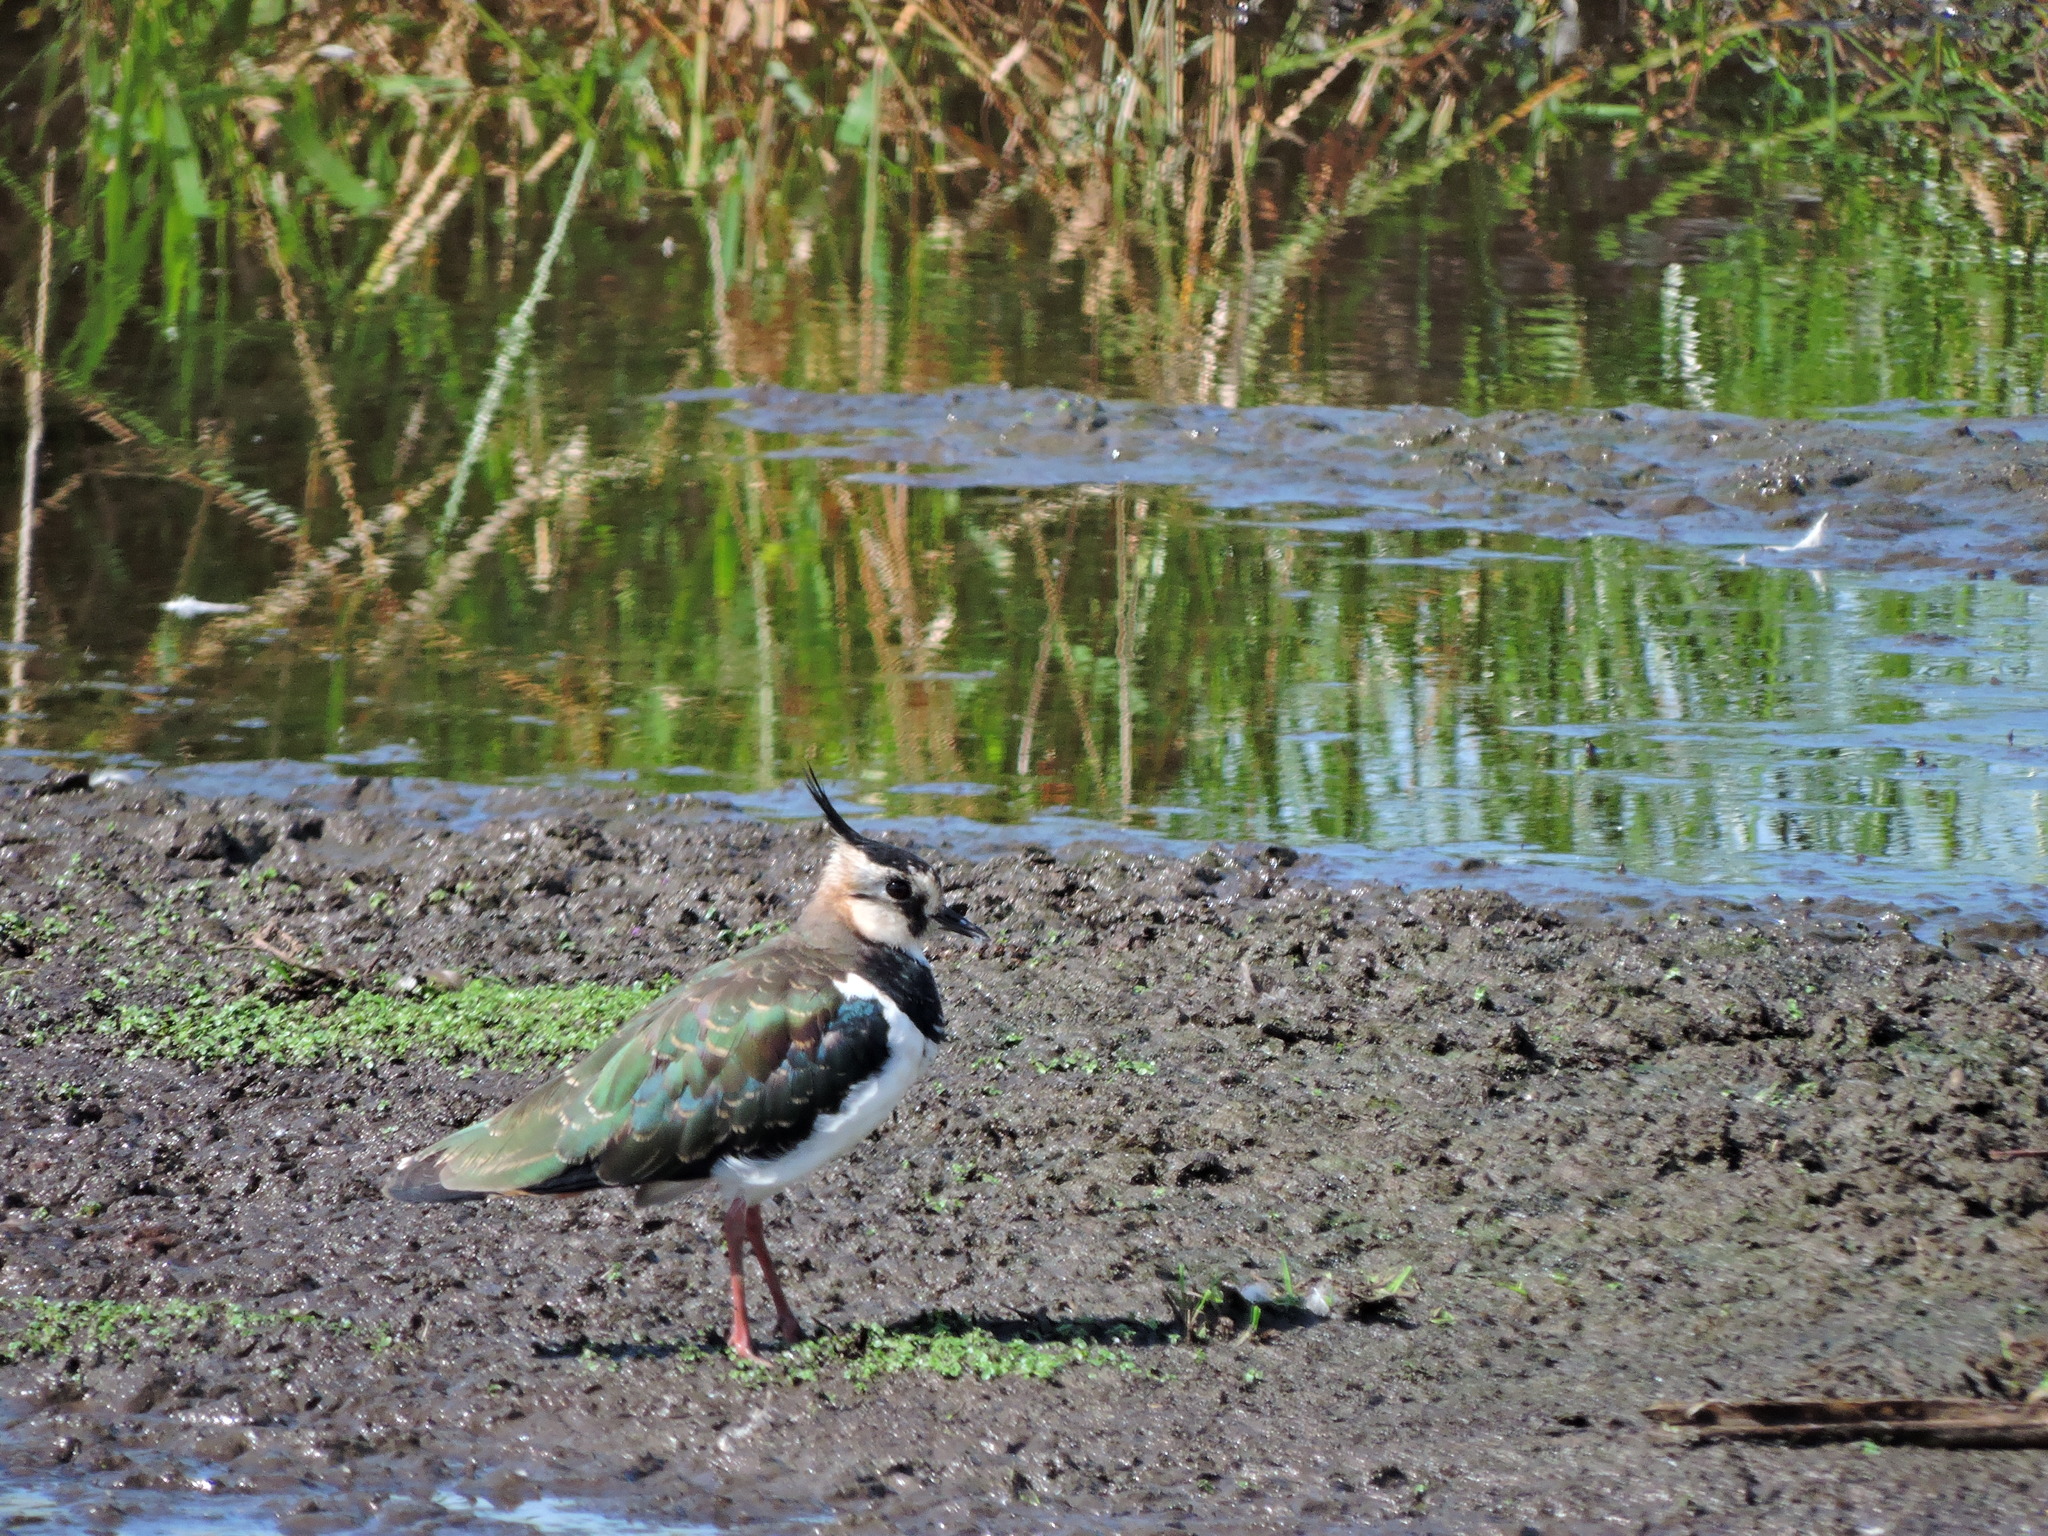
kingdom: Animalia
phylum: Chordata
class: Aves
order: Charadriiformes
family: Charadriidae
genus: Vanellus
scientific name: Vanellus vanellus
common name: Northern lapwing
